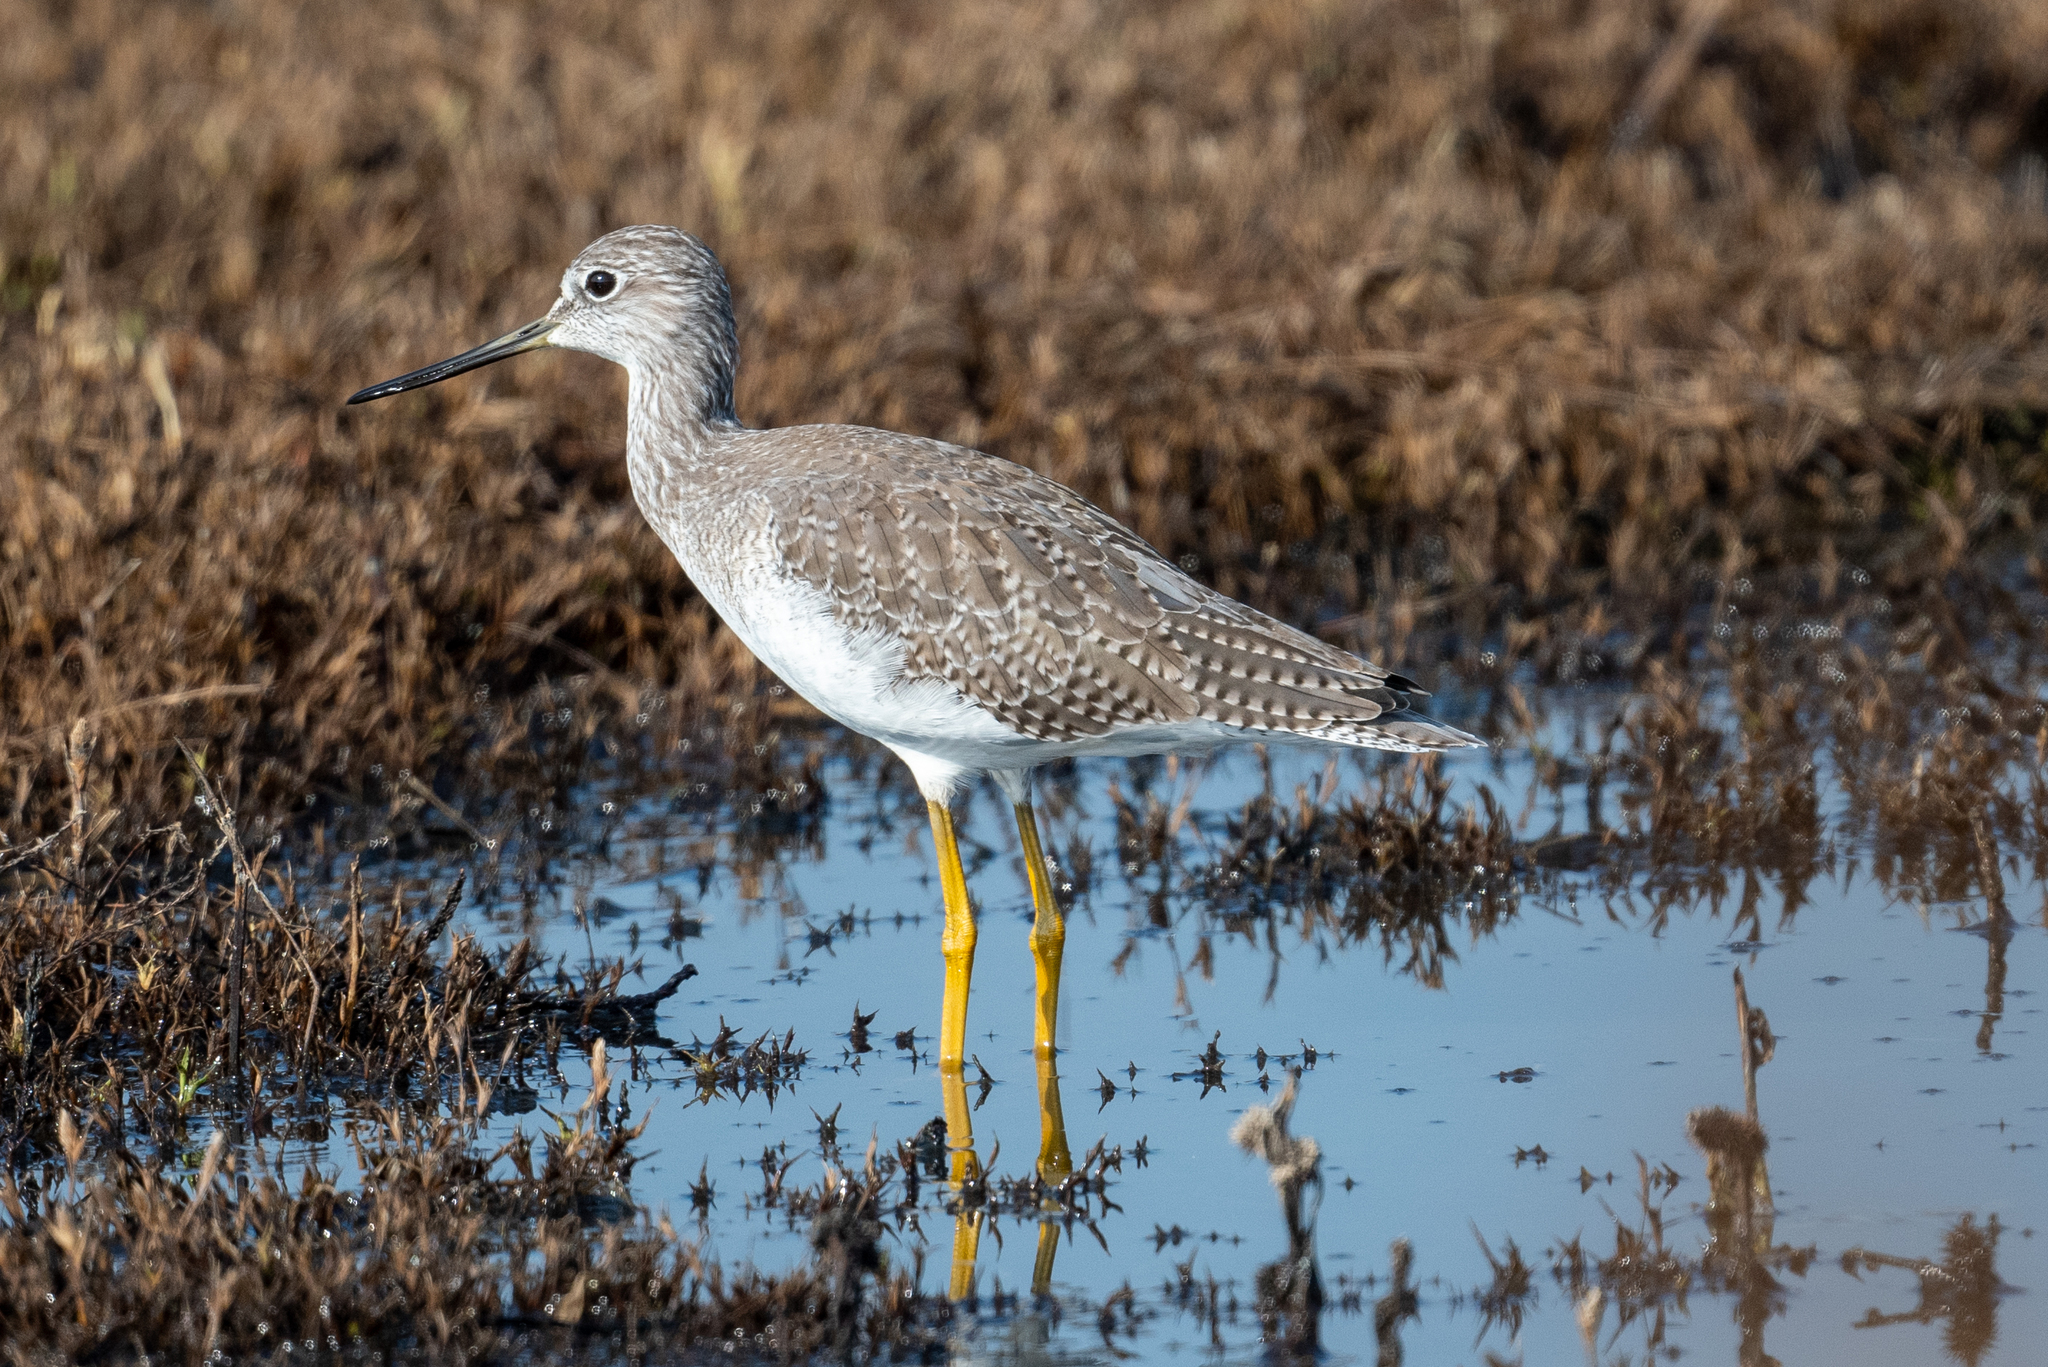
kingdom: Animalia
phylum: Chordata
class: Aves
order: Charadriiformes
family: Scolopacidae
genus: Tringa
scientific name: Tringa melanoleuca
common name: Greater yellowlegs
